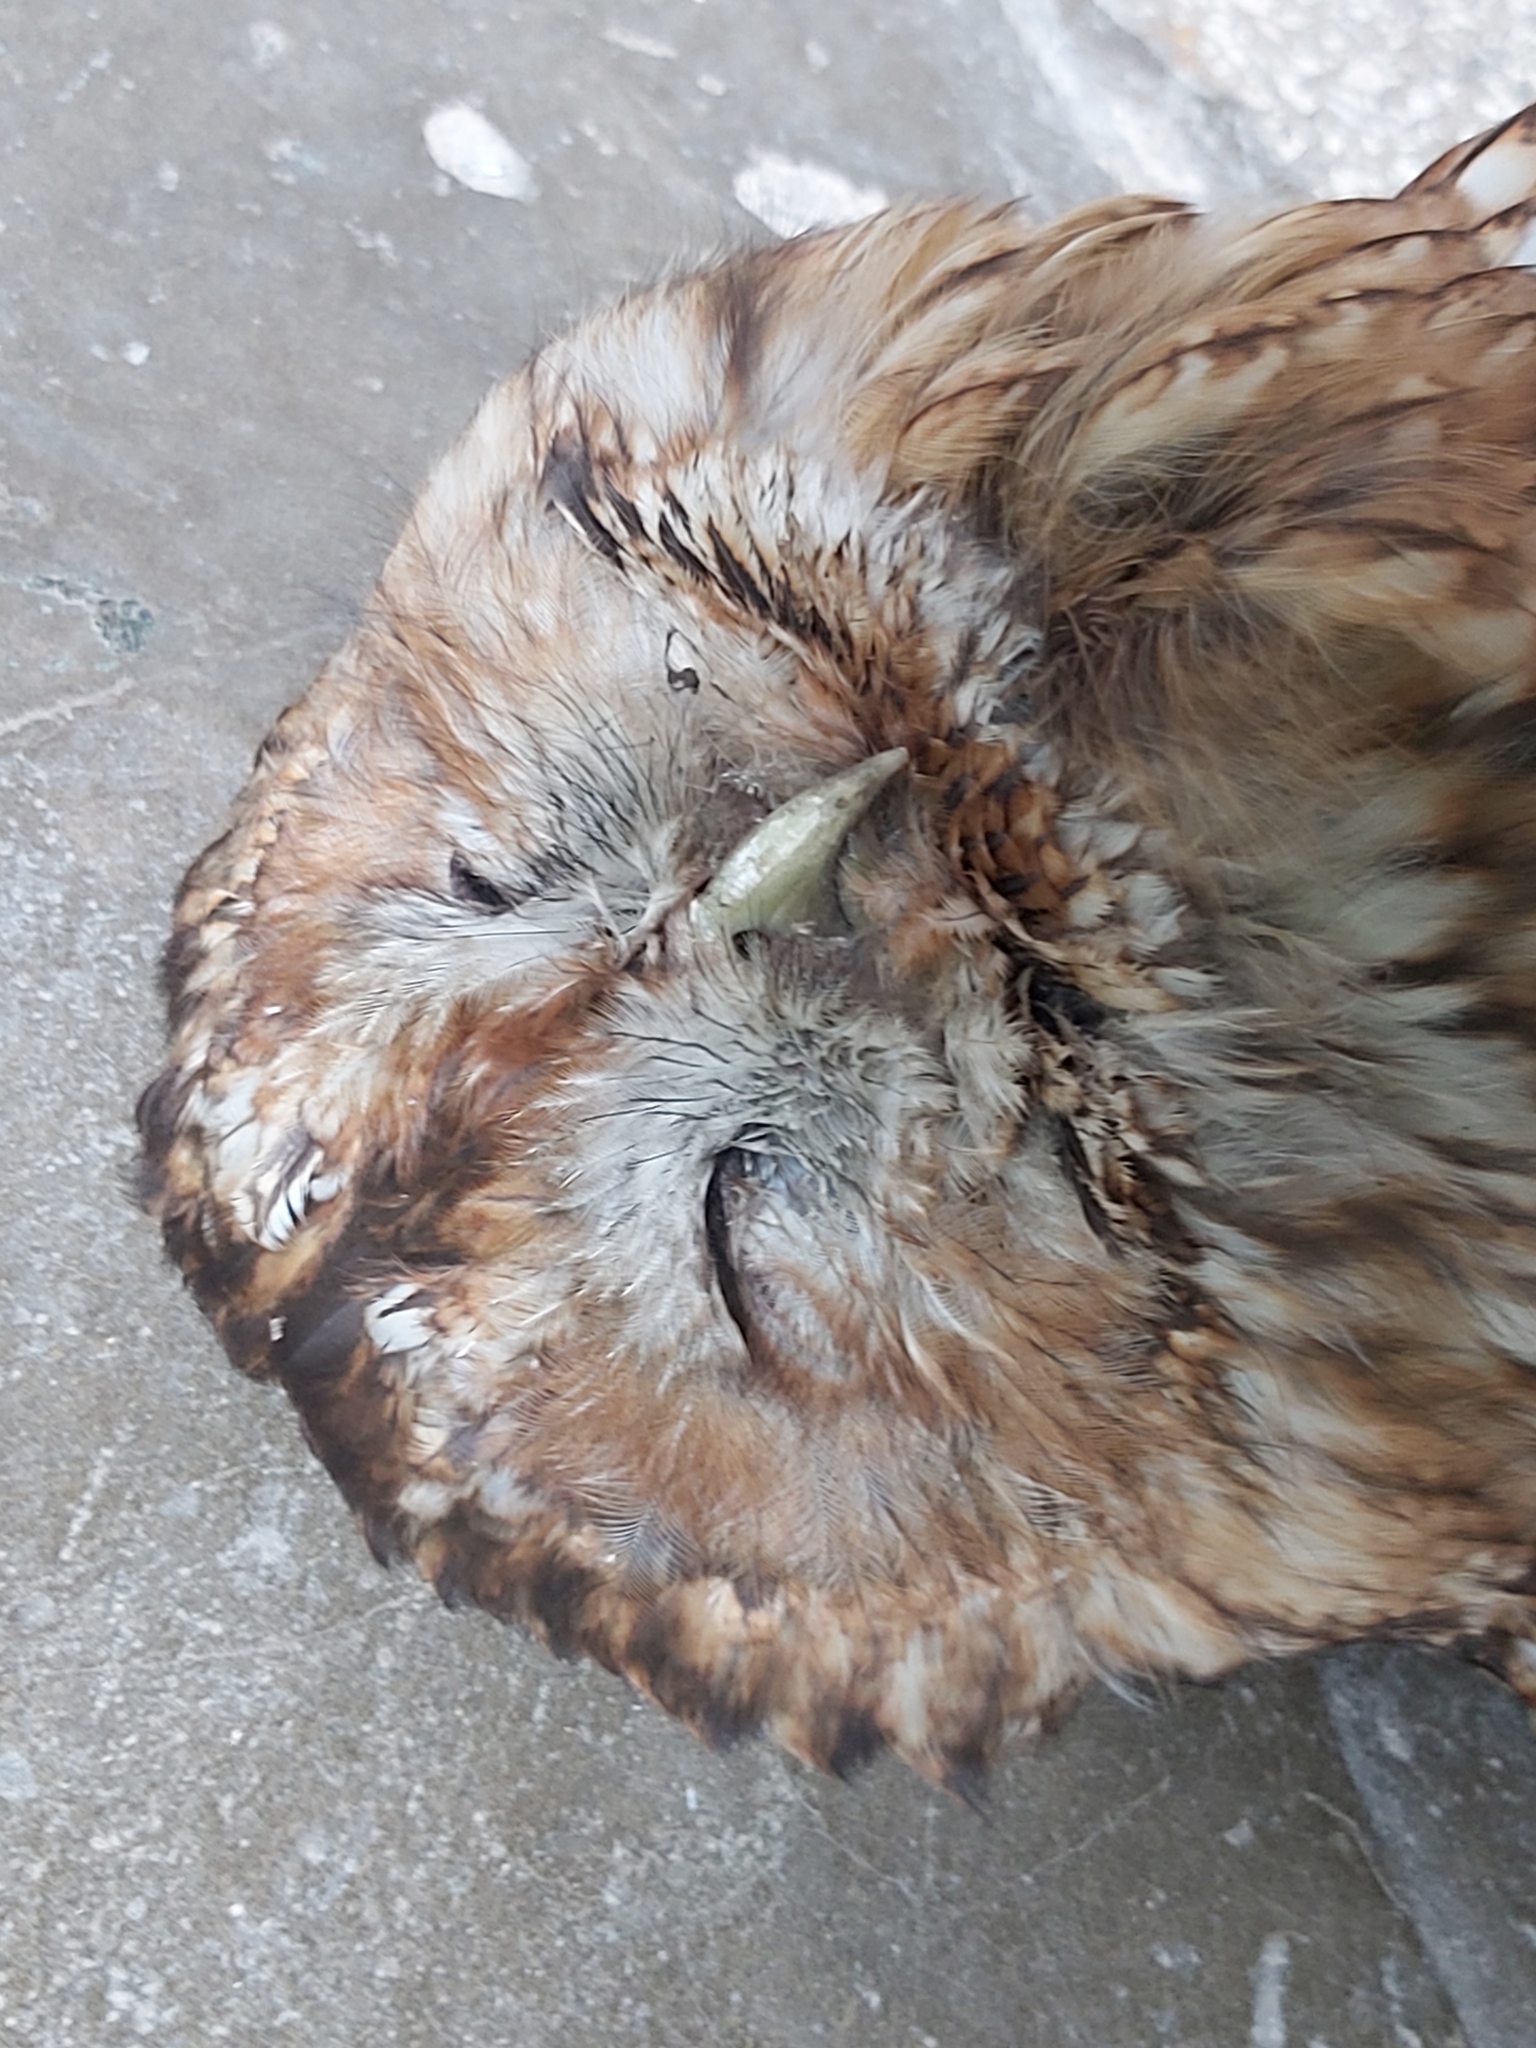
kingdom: Animalia
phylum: Chordata
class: Aves
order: Strigiformes
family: Strigidae
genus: Strix
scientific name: Strix aluco
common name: Tawny owl
